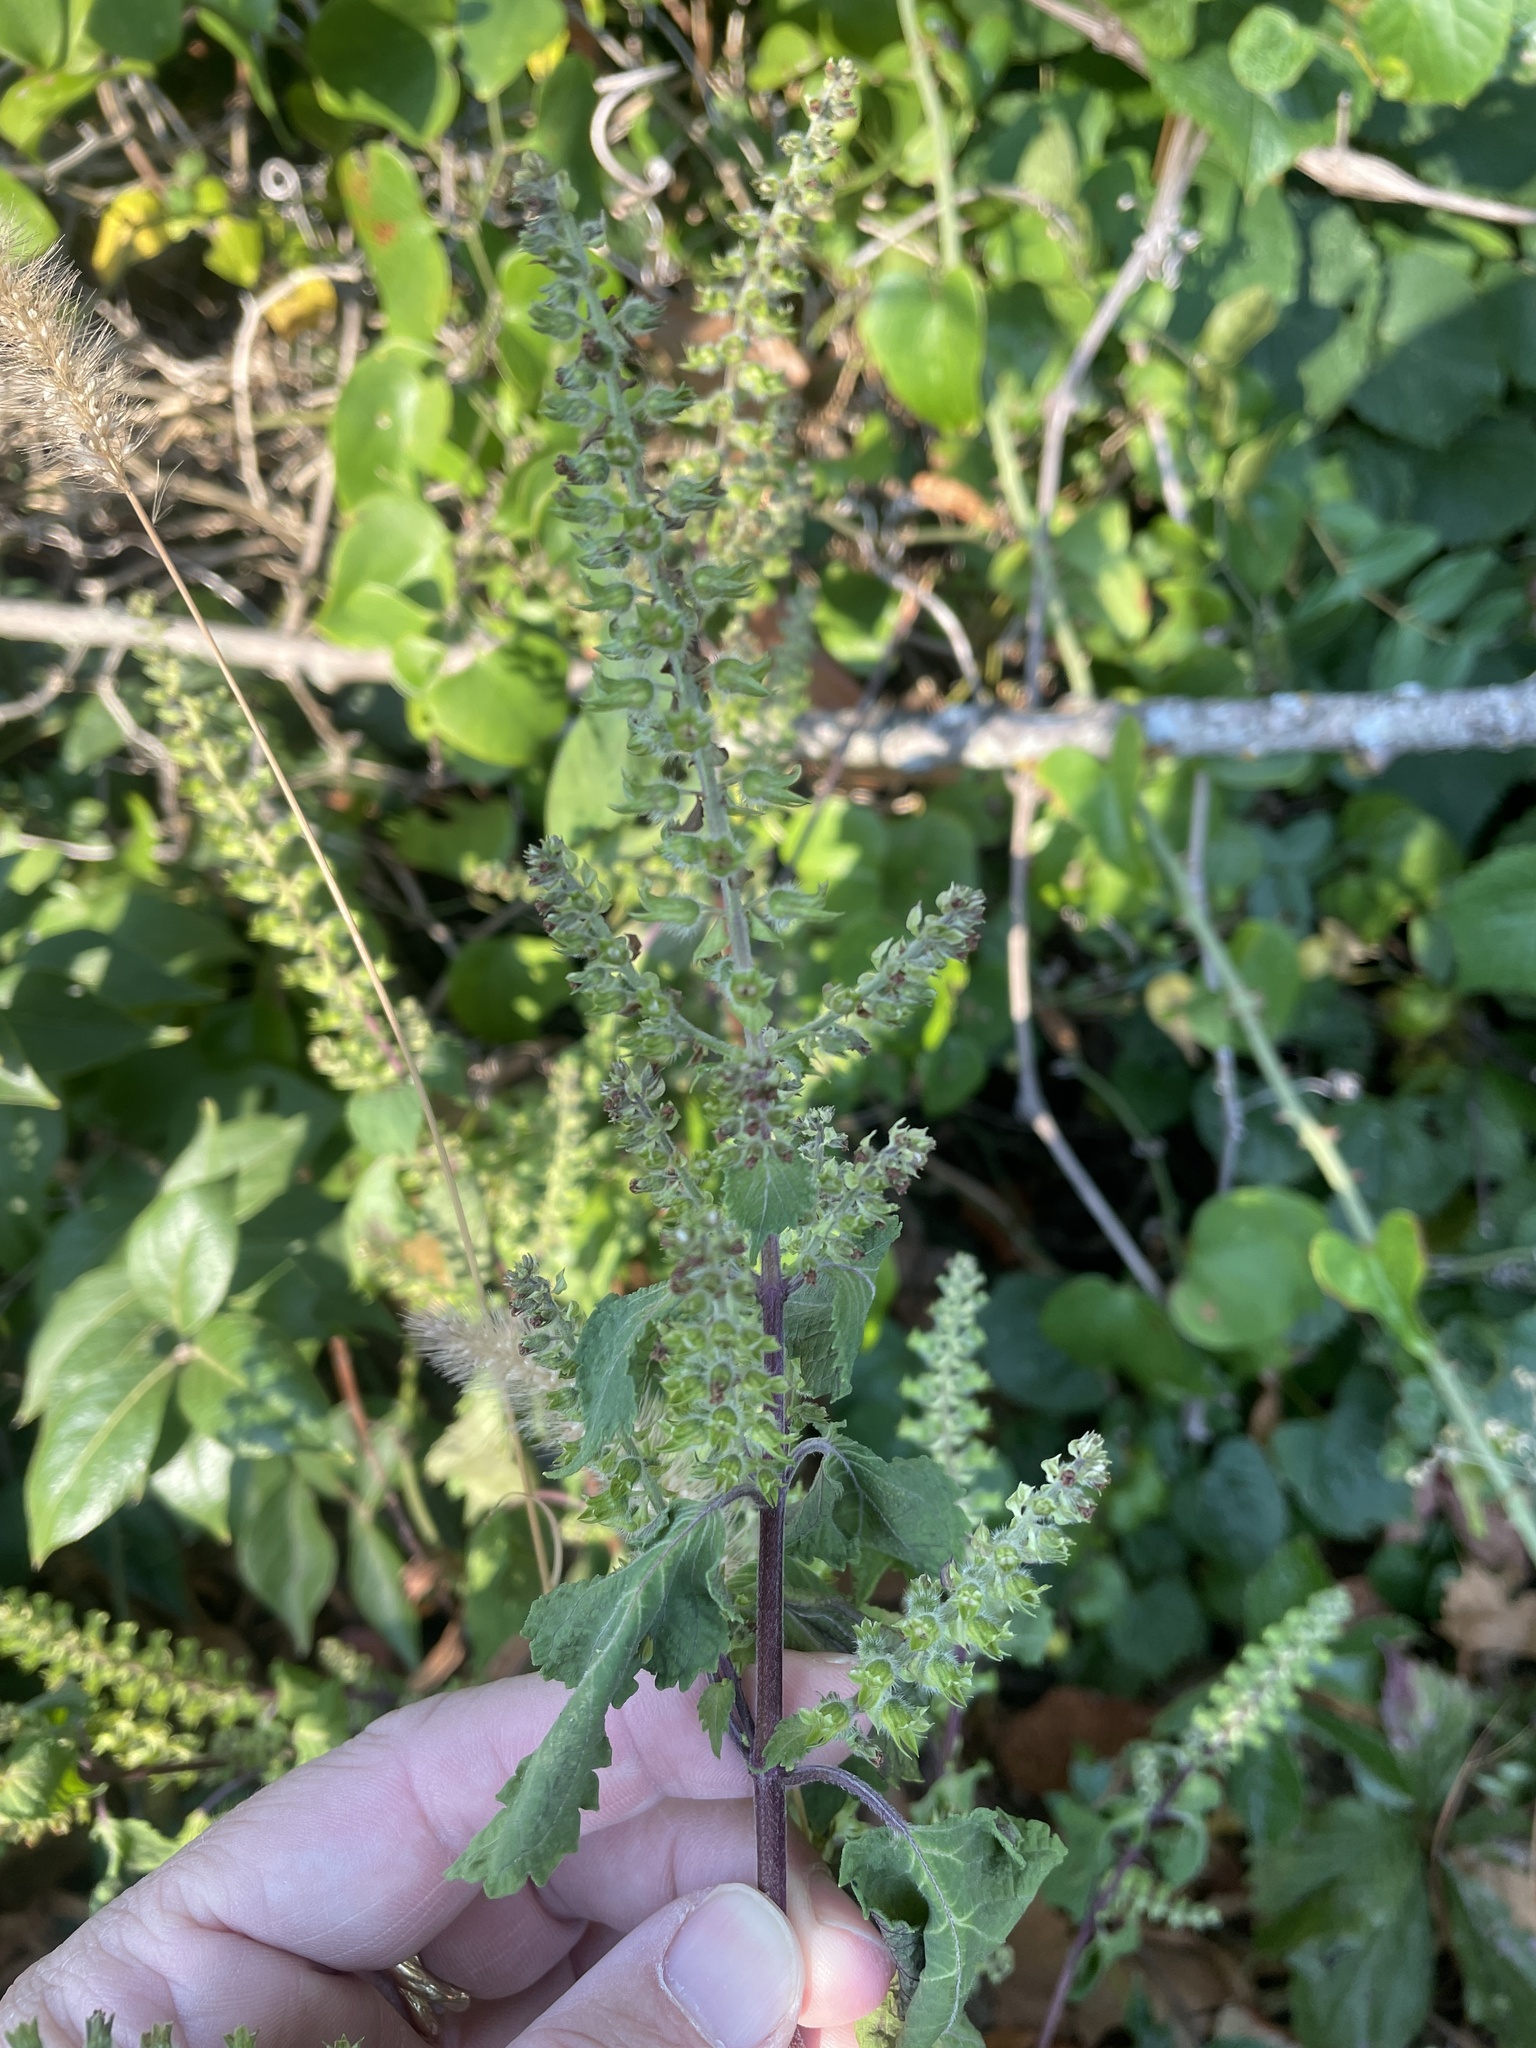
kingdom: Plantae
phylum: Tracheophyta
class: Magnoliopsida
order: Lamiales
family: Lamiaceae
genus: Perilla
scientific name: Perilla frutescens
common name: Perilla
